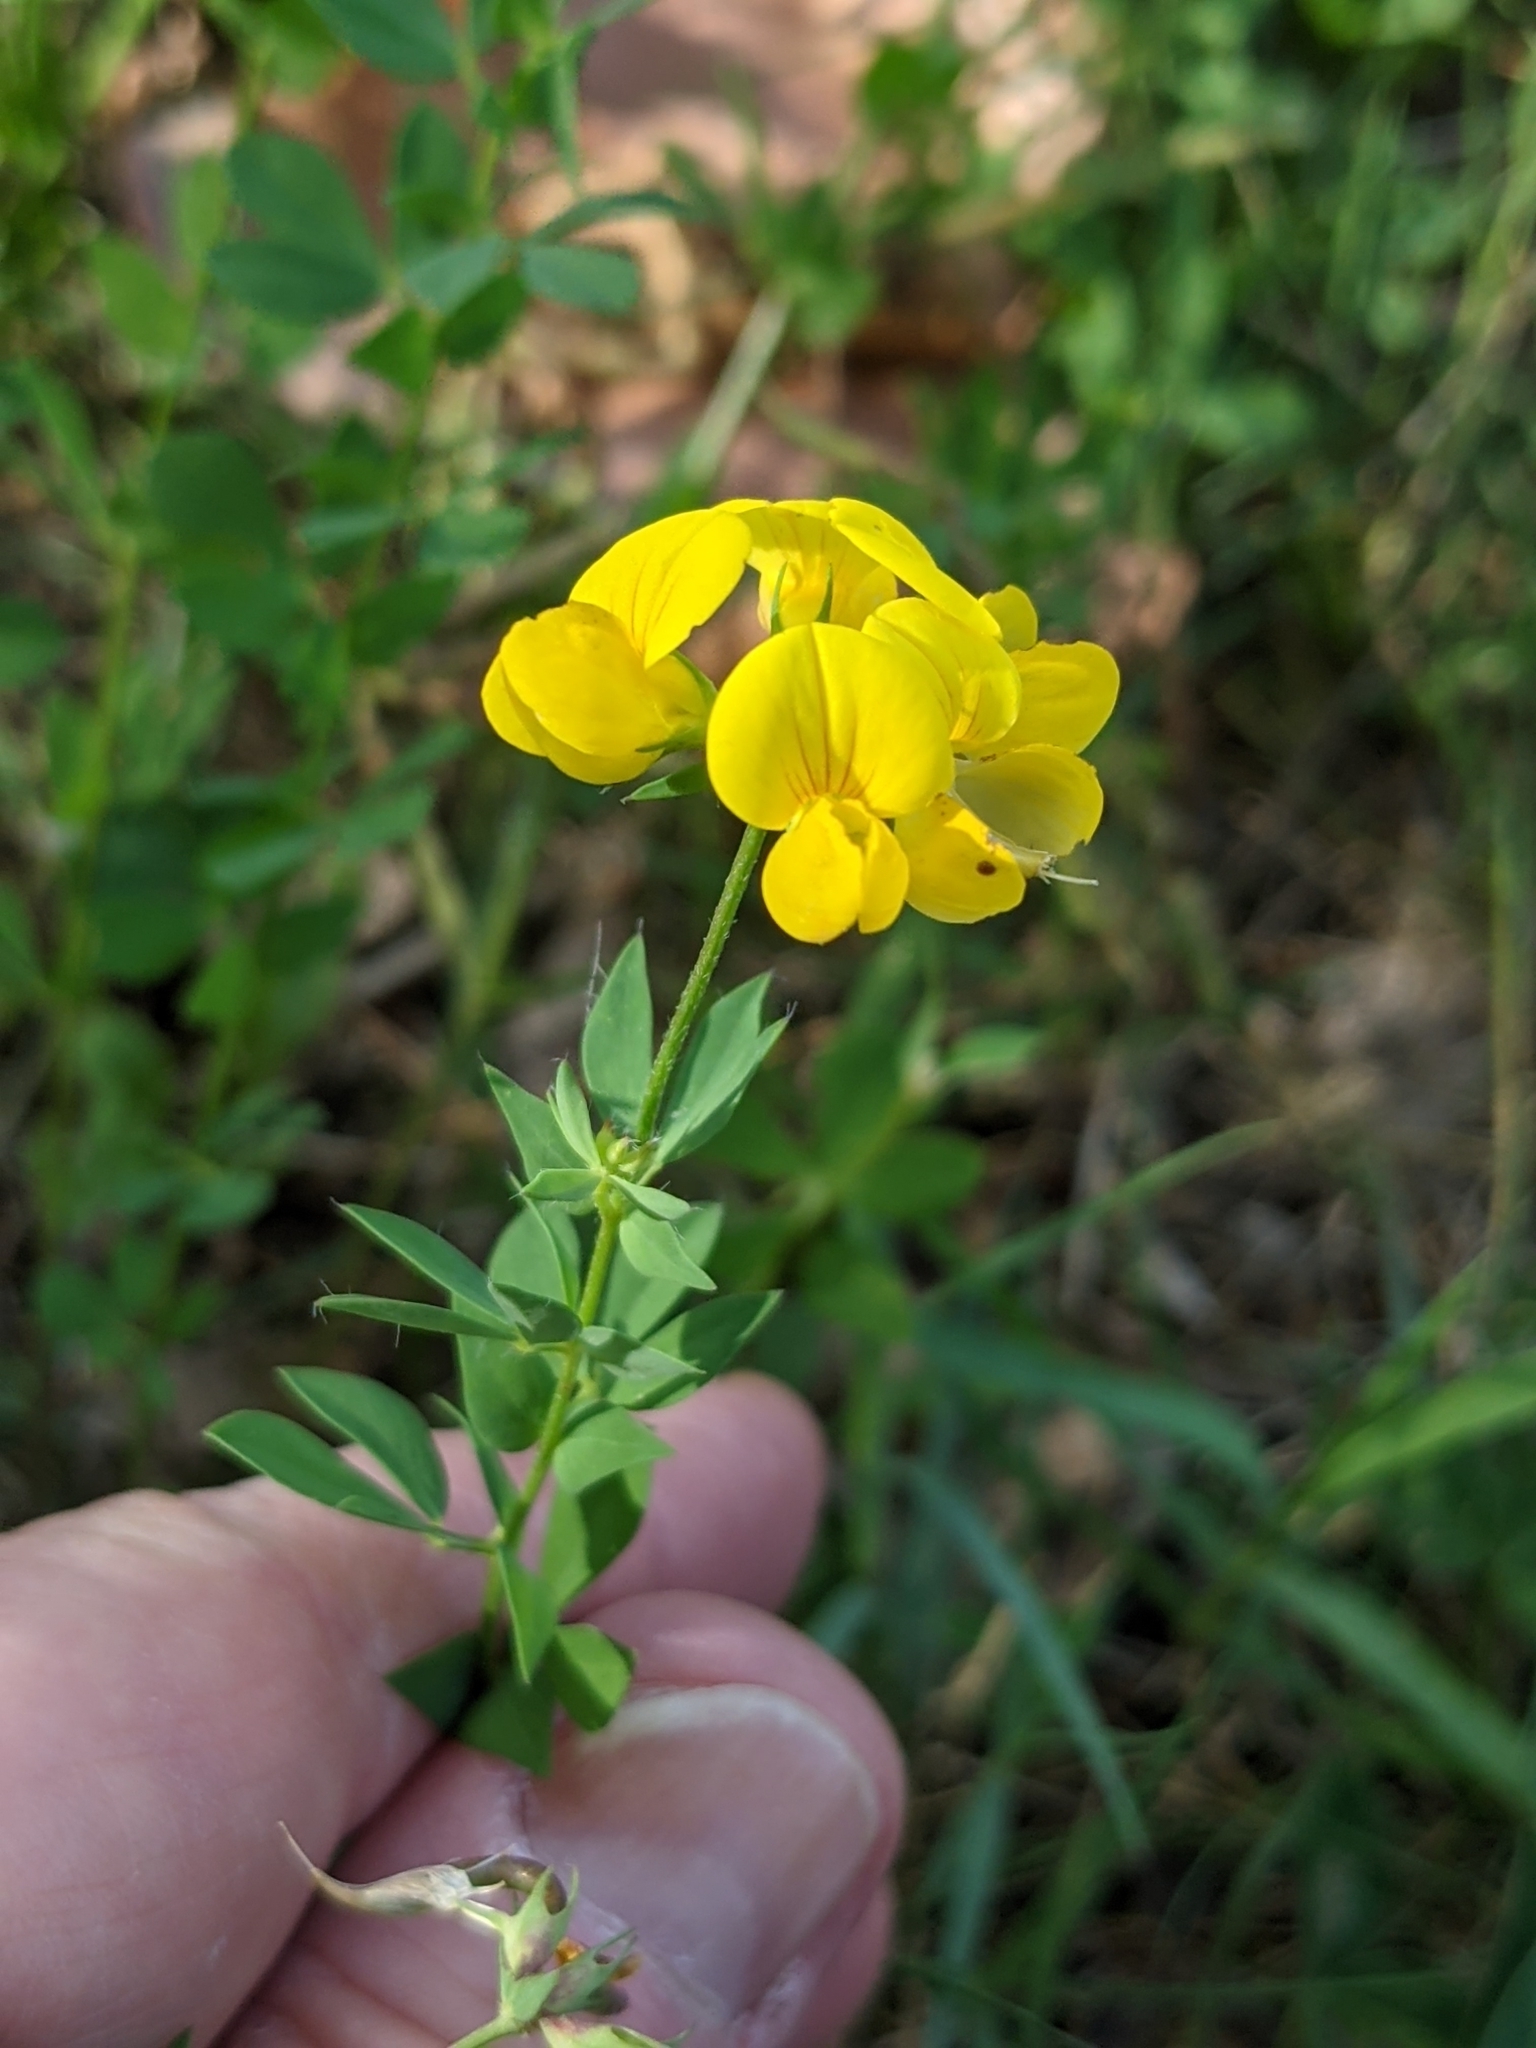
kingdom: Plantae
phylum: Tracheophyta
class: Magnoliopsida
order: Fabales
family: Fabaceae
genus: Lotus
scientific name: Lotus corniculatus
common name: Common bird's-foot-trefoil
